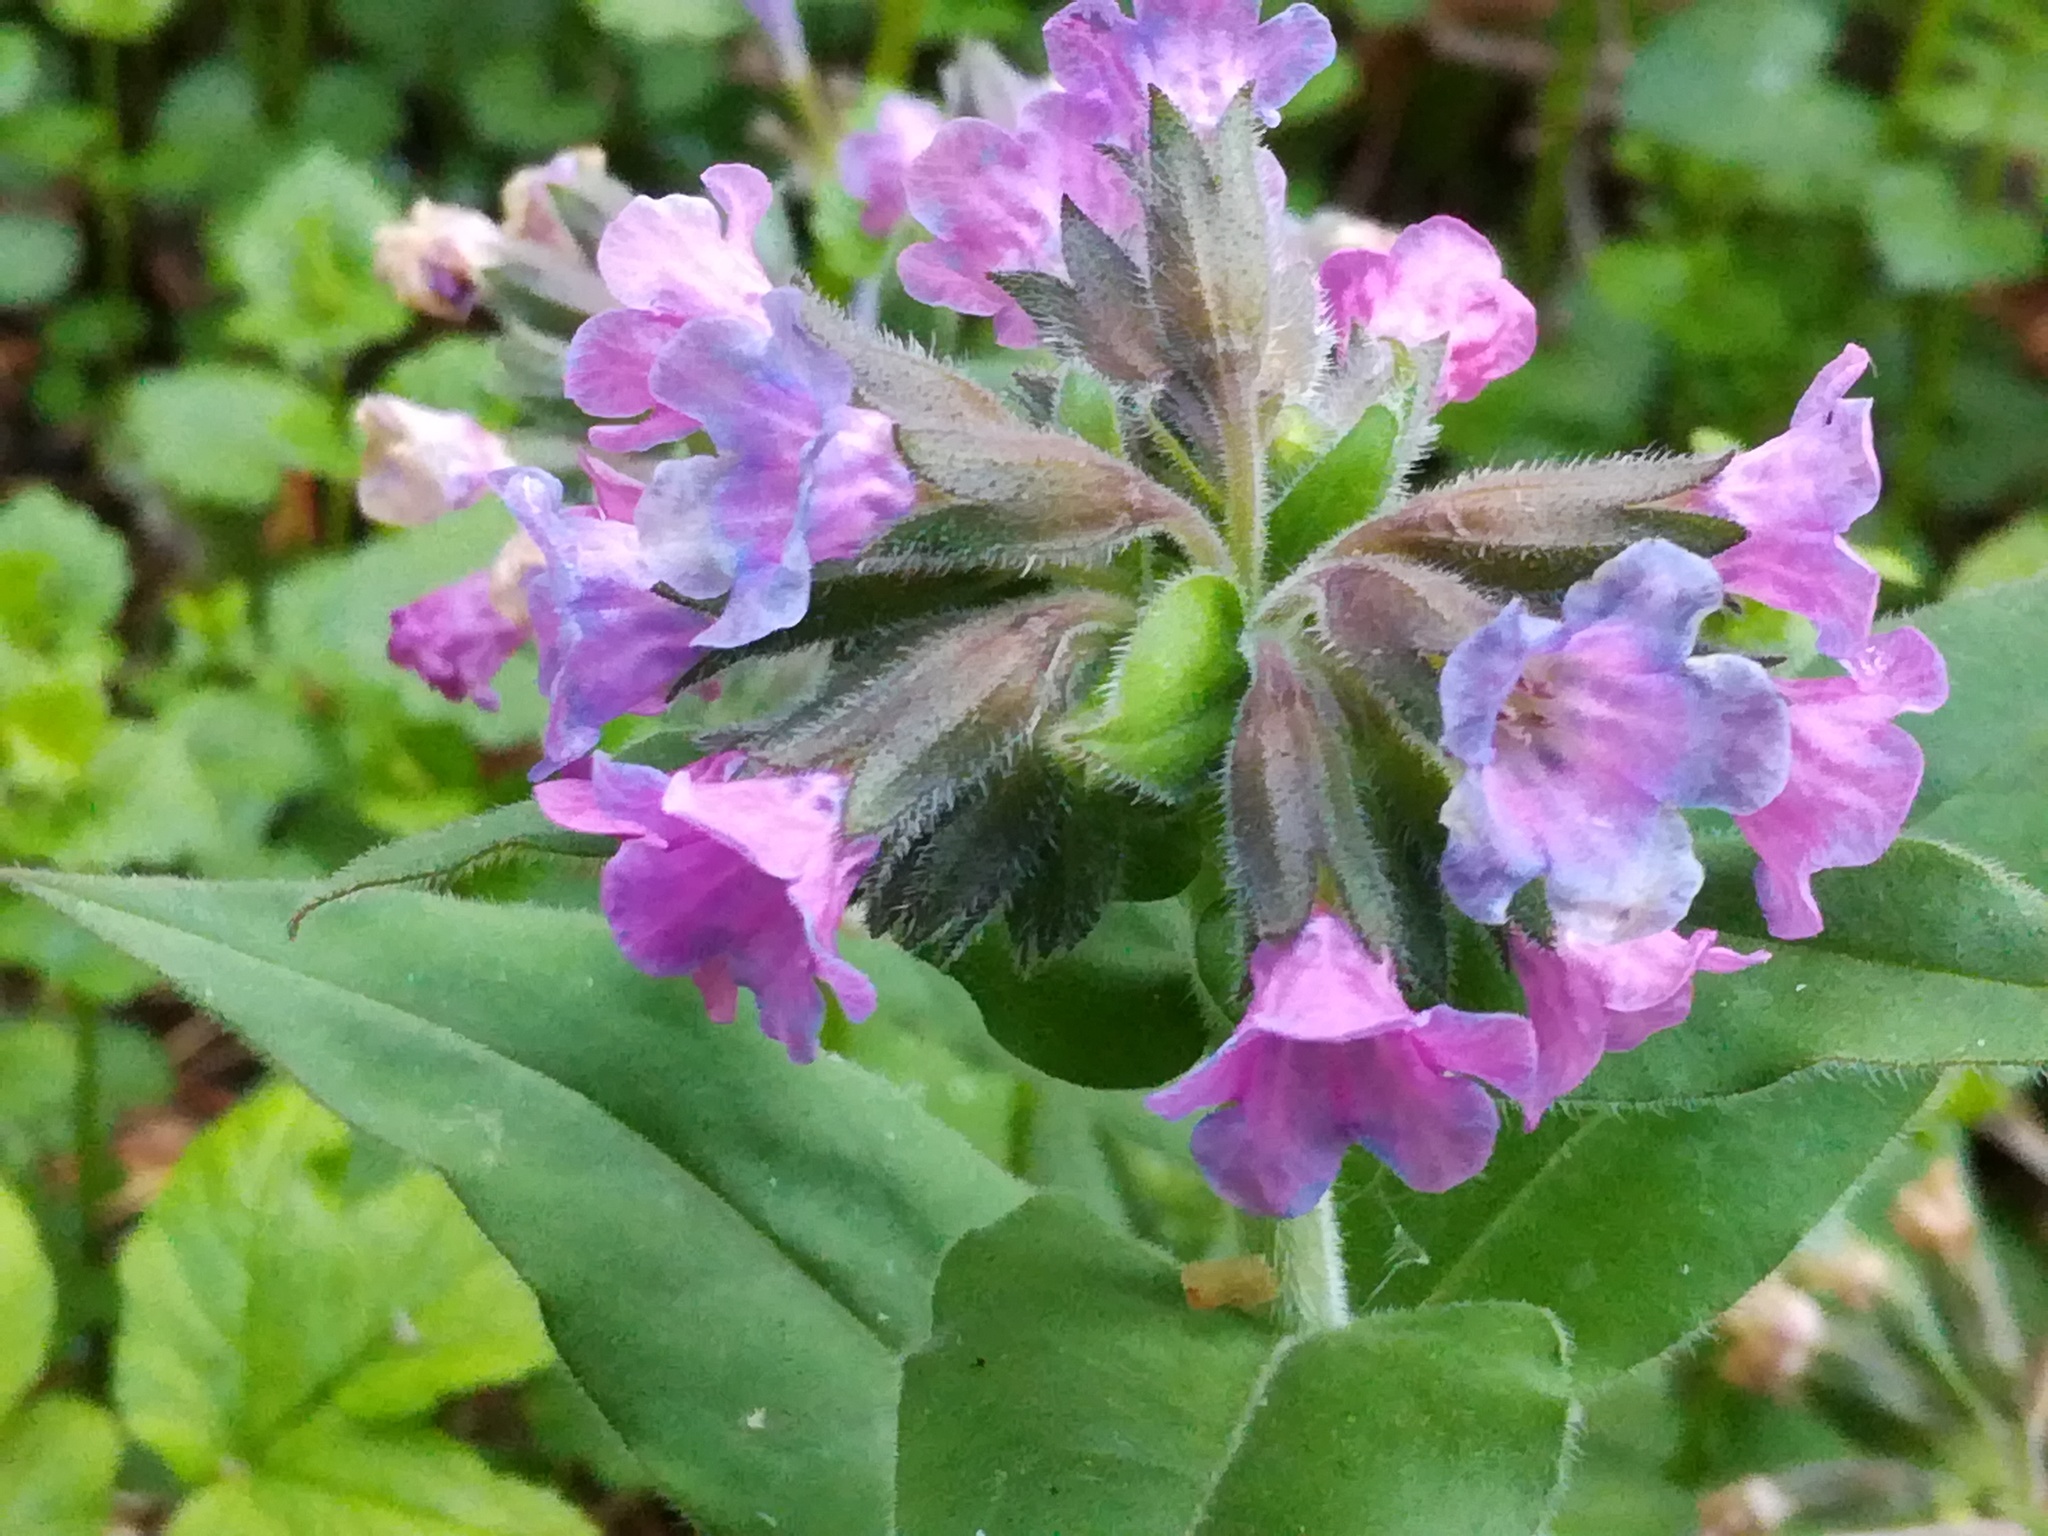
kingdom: Plantae
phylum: Tracheophyta
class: Magnoliopsida
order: Boraginales
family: Boraginaceae
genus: Pulmonaria
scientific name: Pulmonaria mollis
